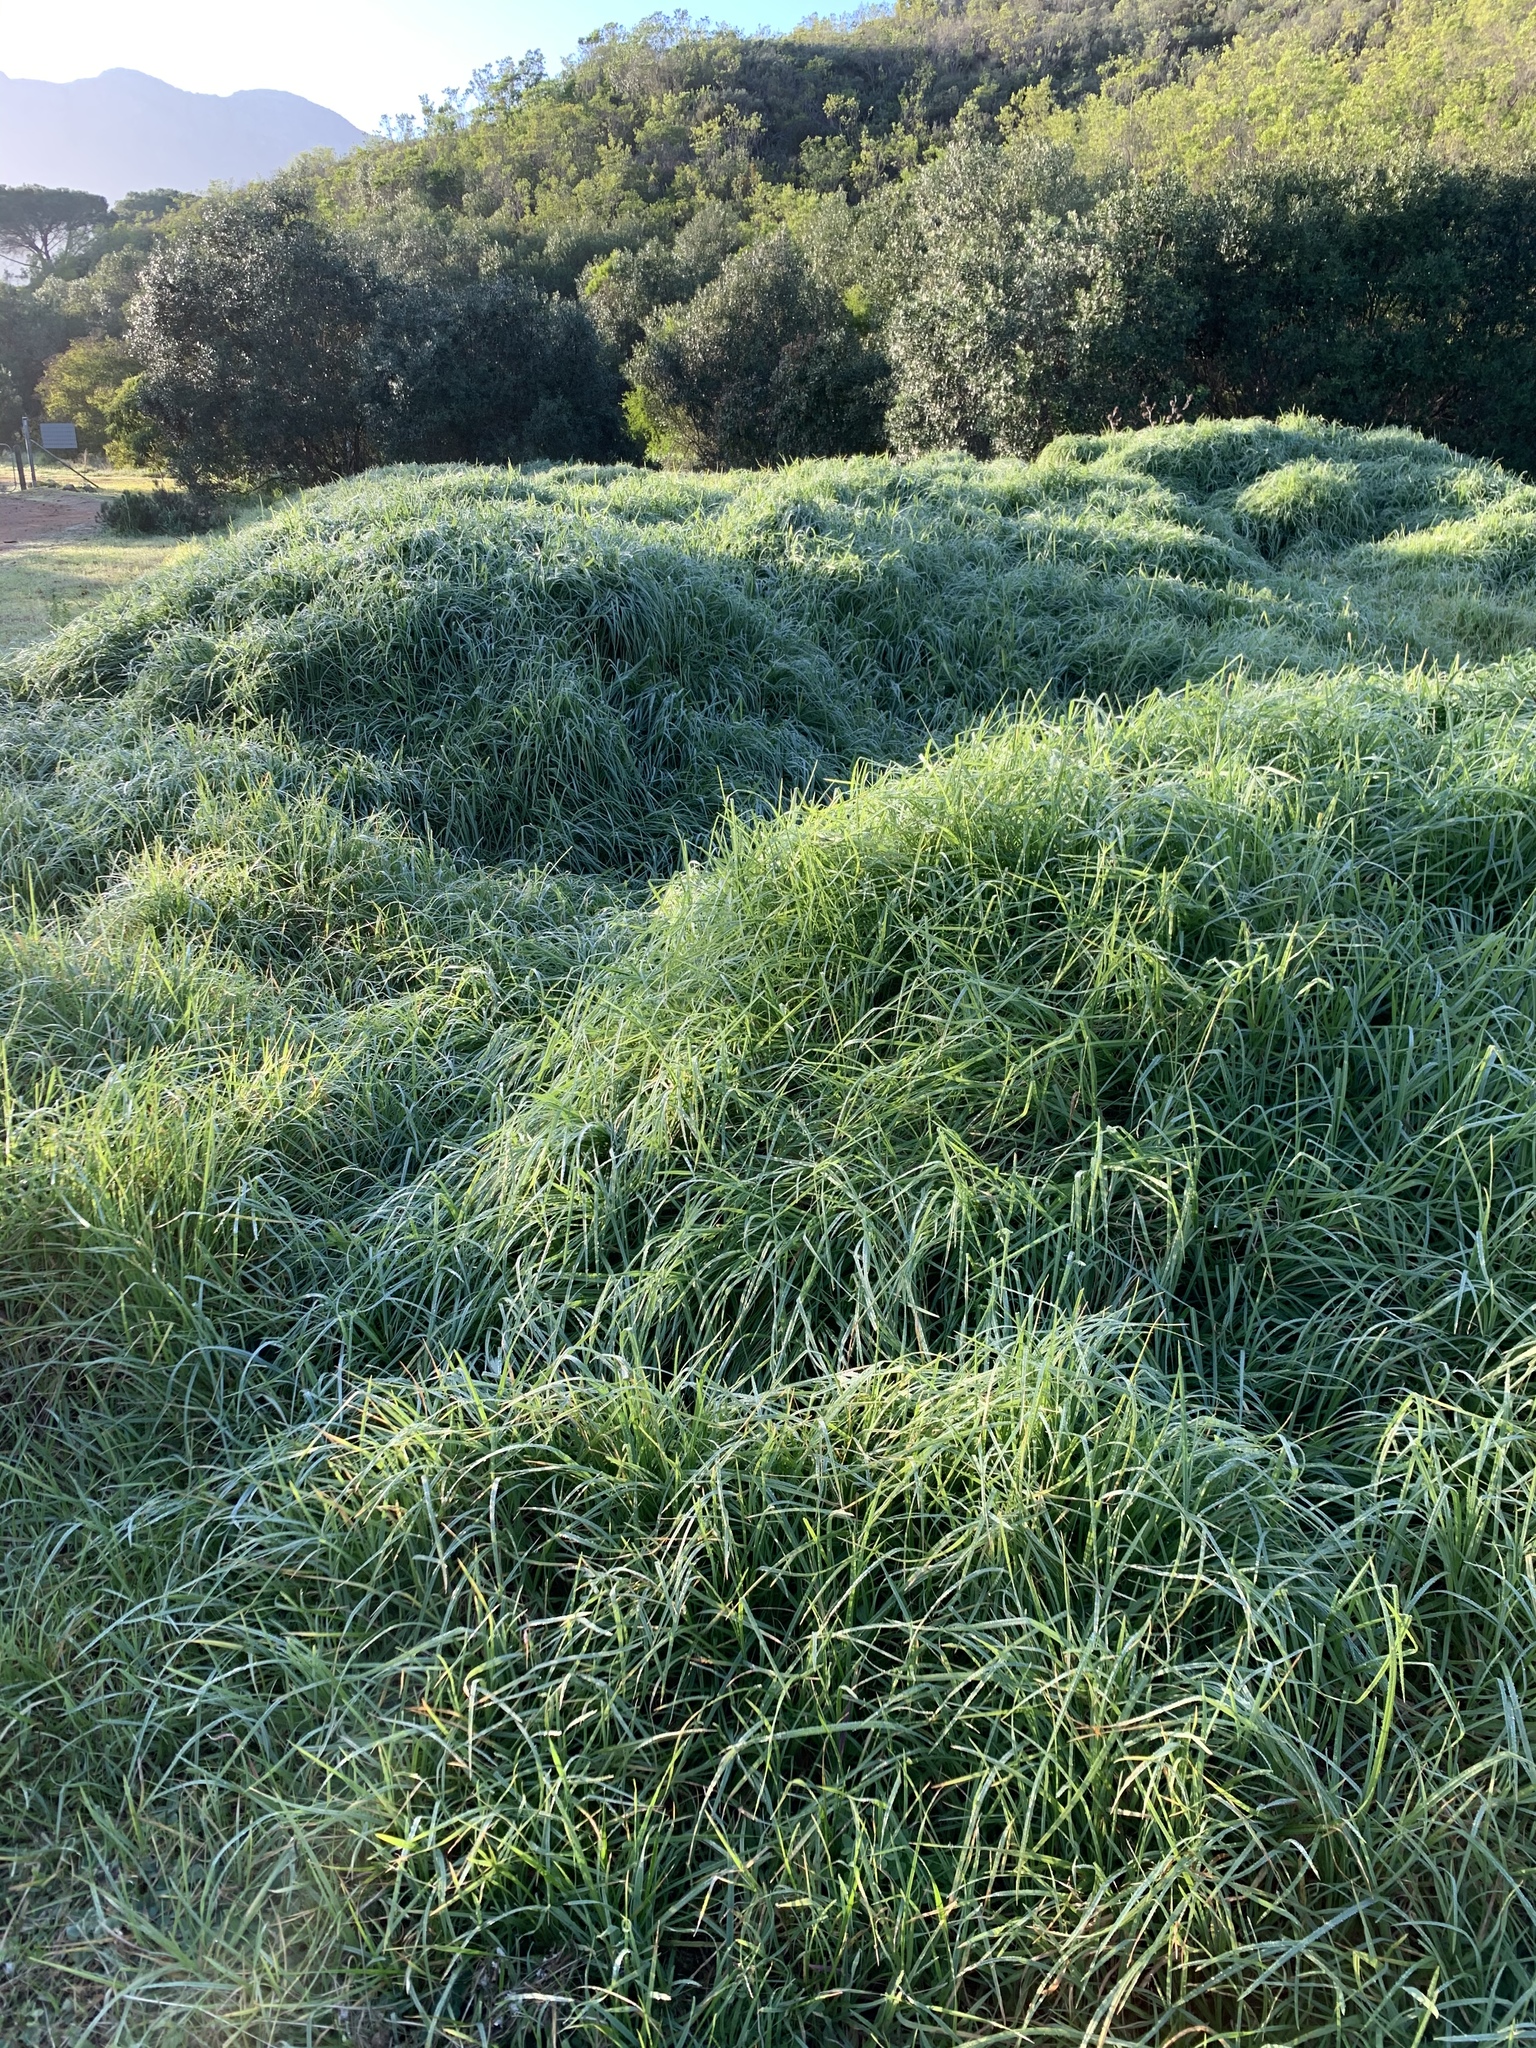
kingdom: Plantae
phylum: Tracheophyta
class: Liliopsida
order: Poales
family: Poaceae
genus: Cenchrus
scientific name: Cenchrus clandestinus
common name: Kikuyugrass
